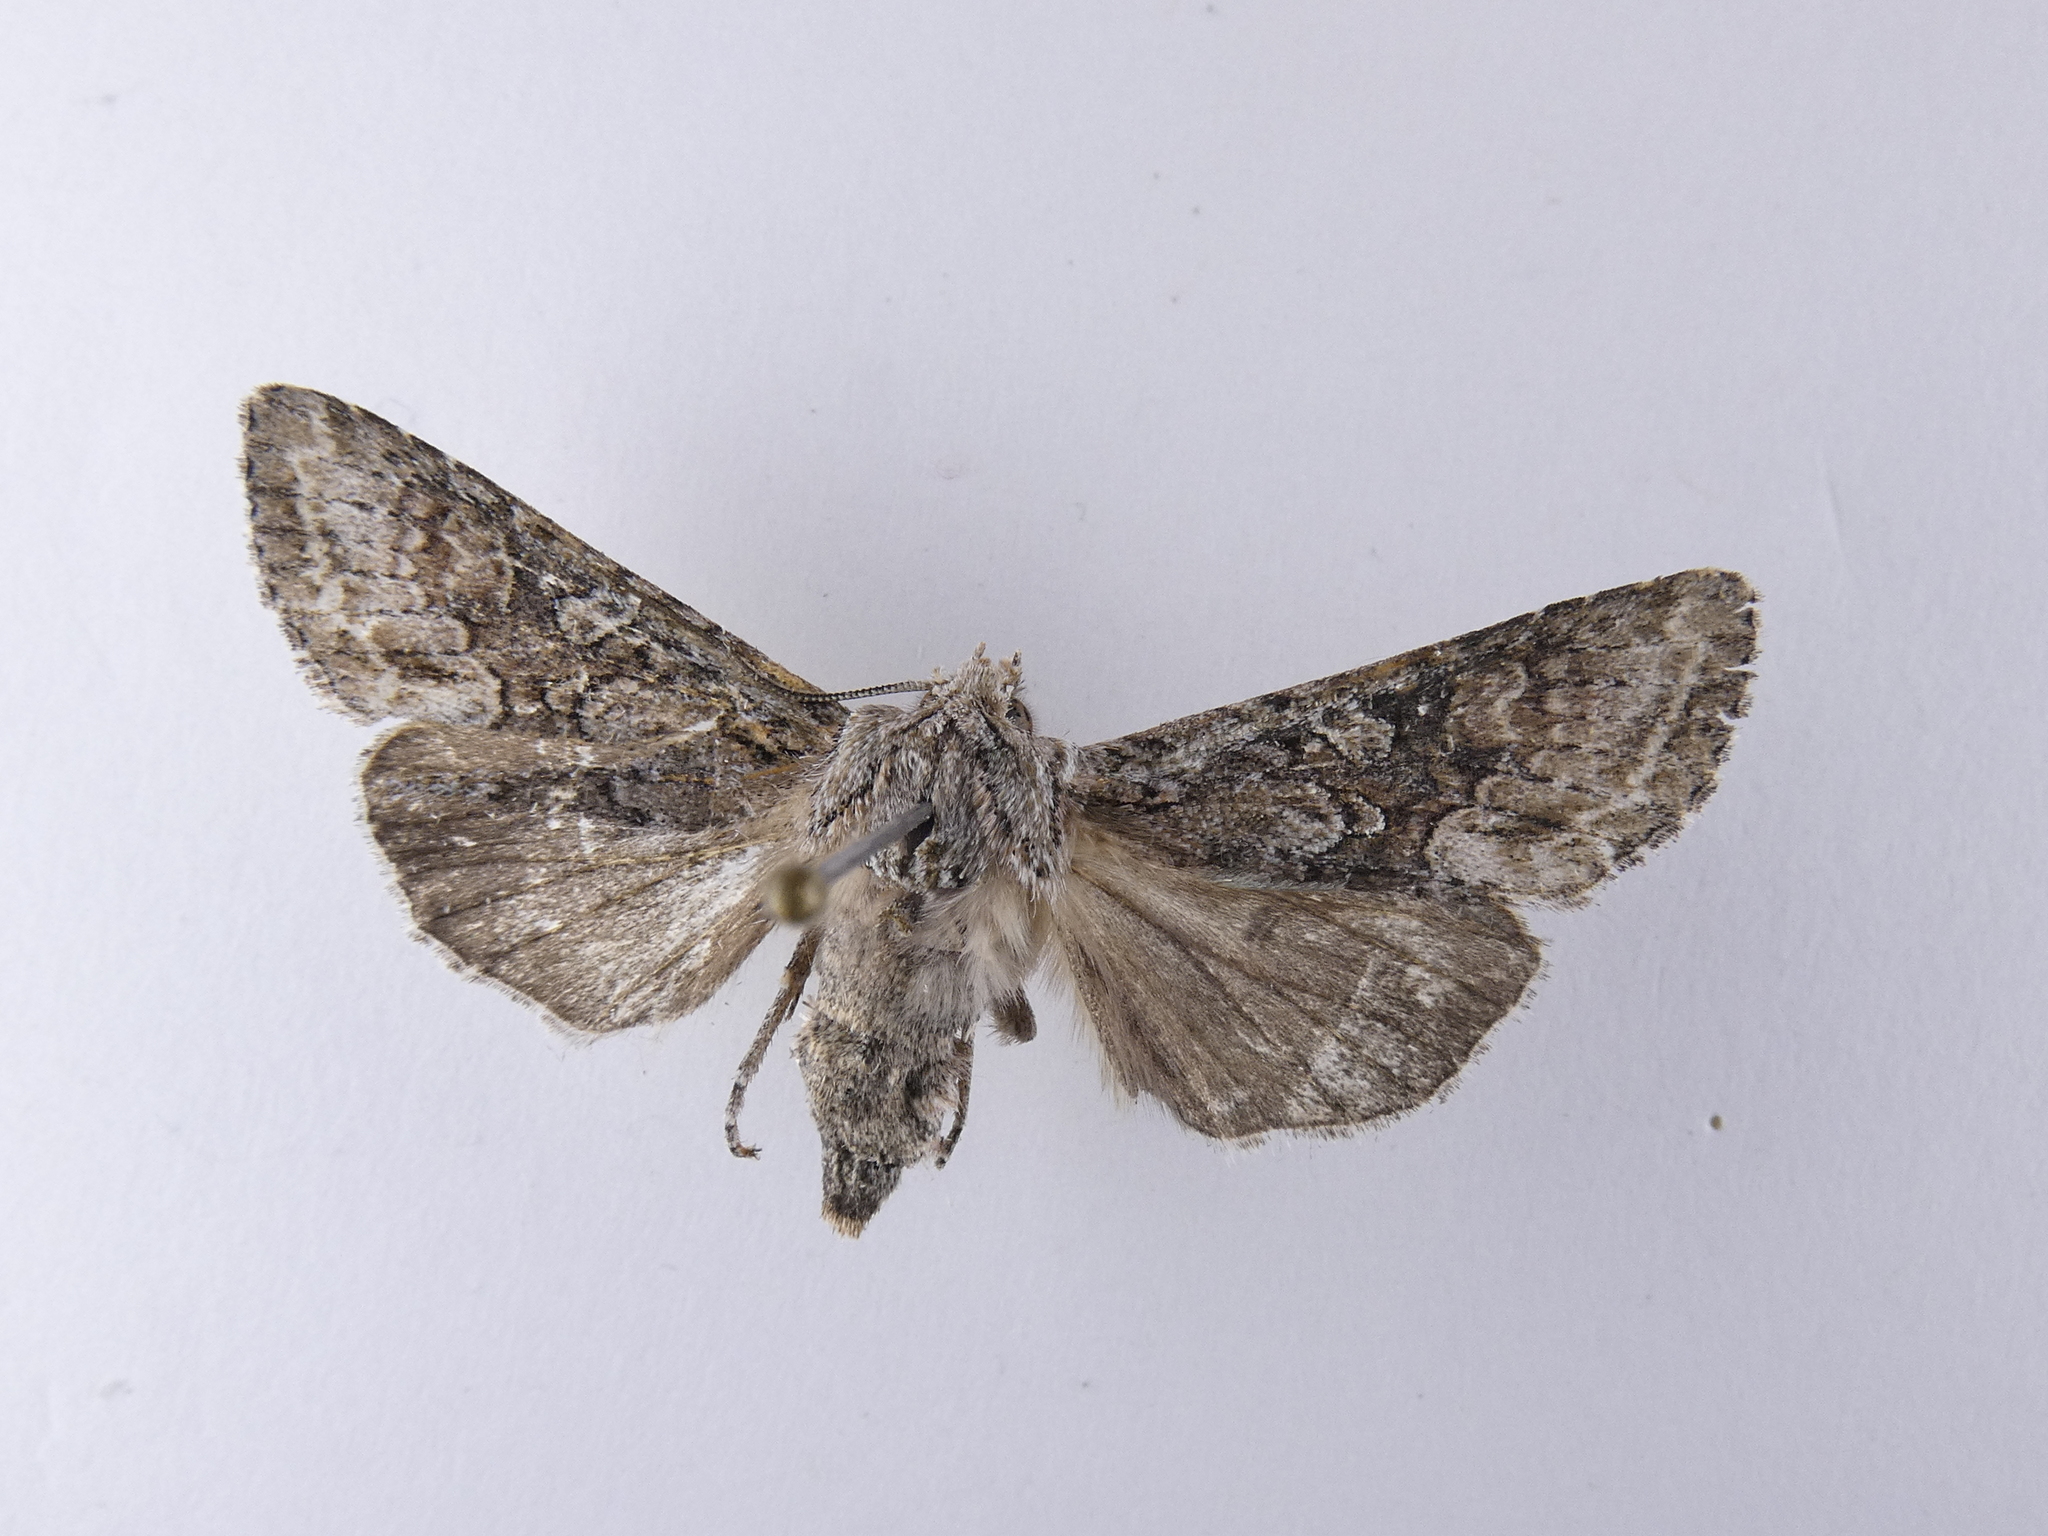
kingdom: Animalia
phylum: Arthropoda
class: Insecta
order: Lepidoptera
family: Noctuidae
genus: Ichneutica
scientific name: Ichneutica mutans
